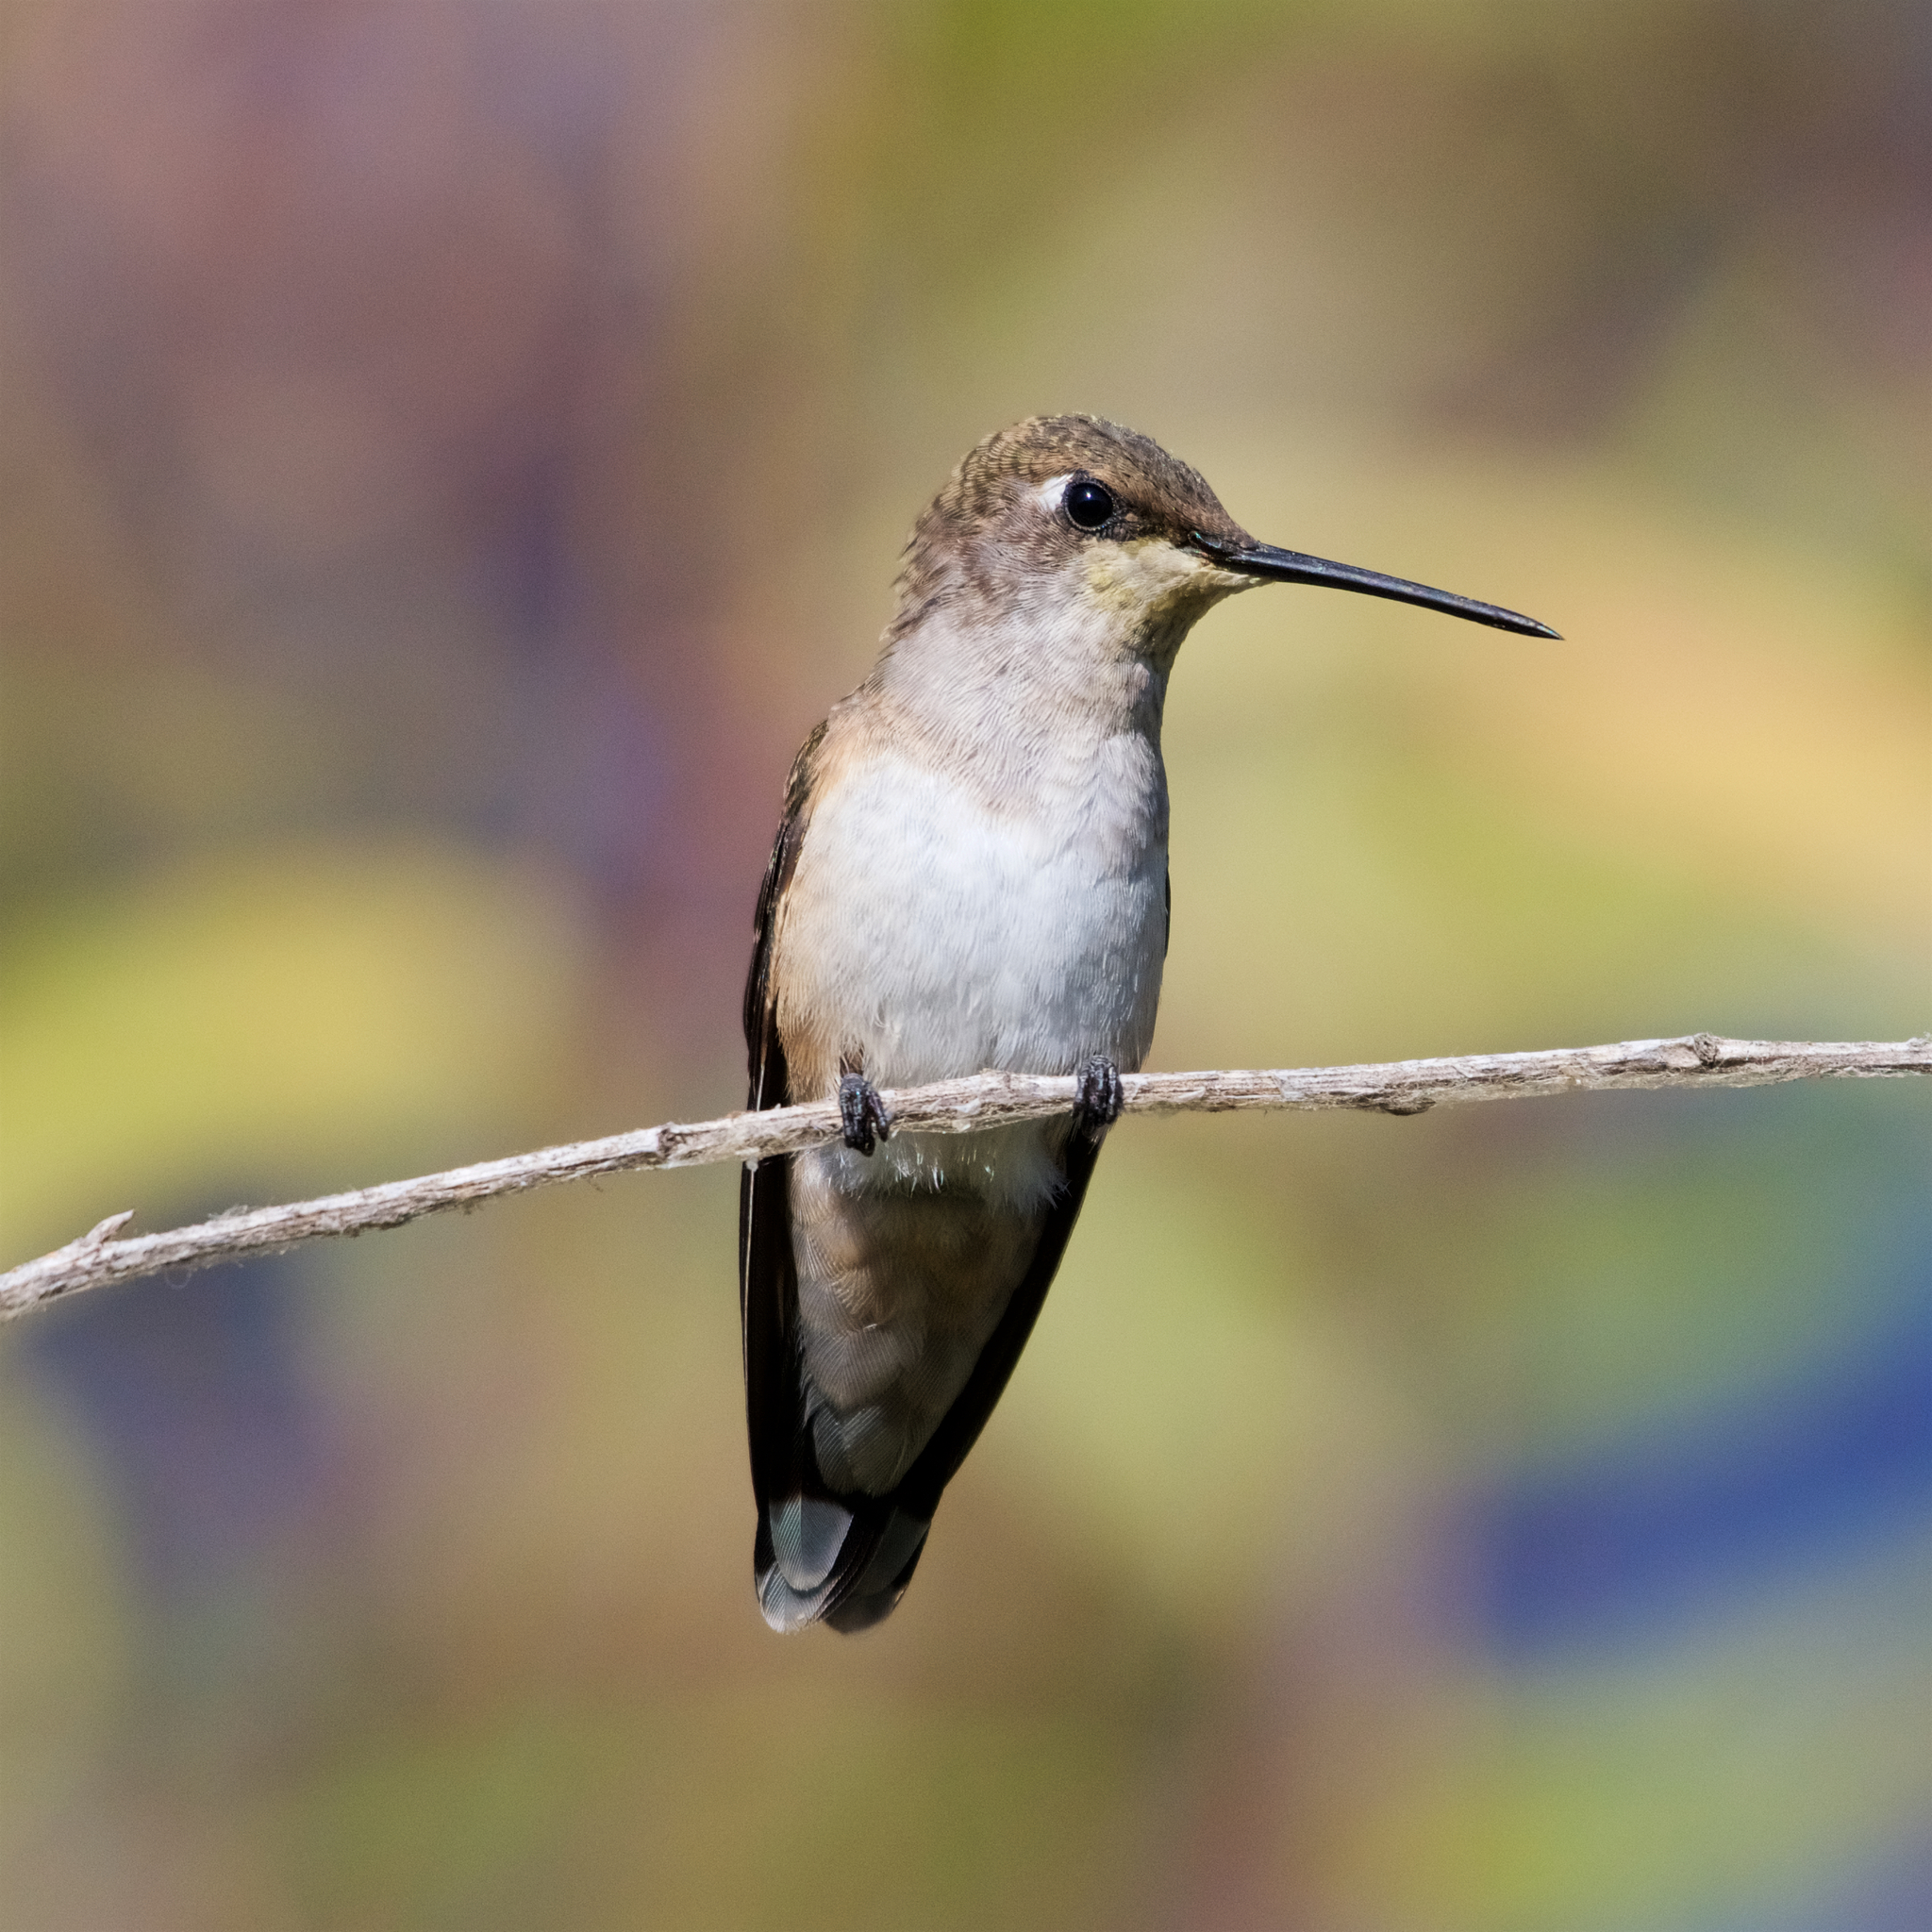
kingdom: Animalia
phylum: Chordata
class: Aves
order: Apodiformes
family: Trochilidae
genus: Archilochus
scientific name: Archilochus alexandri
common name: Black-chinned hummingbird
